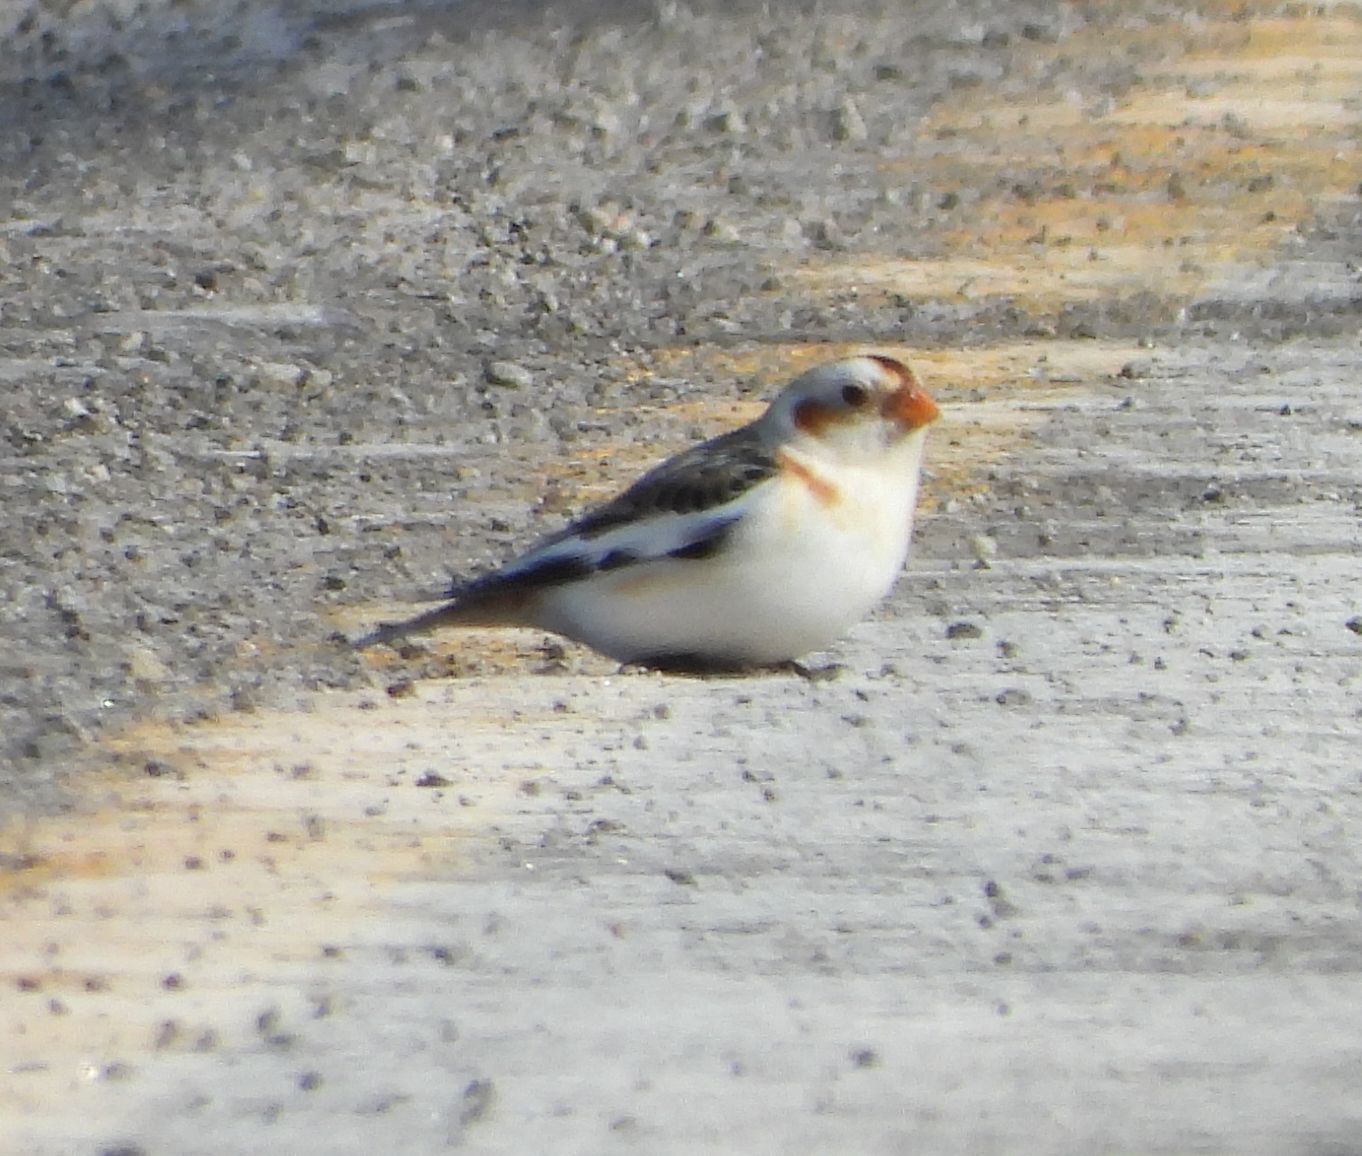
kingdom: Animalia
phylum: Chordata
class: Aves
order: Passeriformes
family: Calcariidae
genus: Plectrophenax
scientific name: Plectrophenax nivalis
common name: Snow bunting
